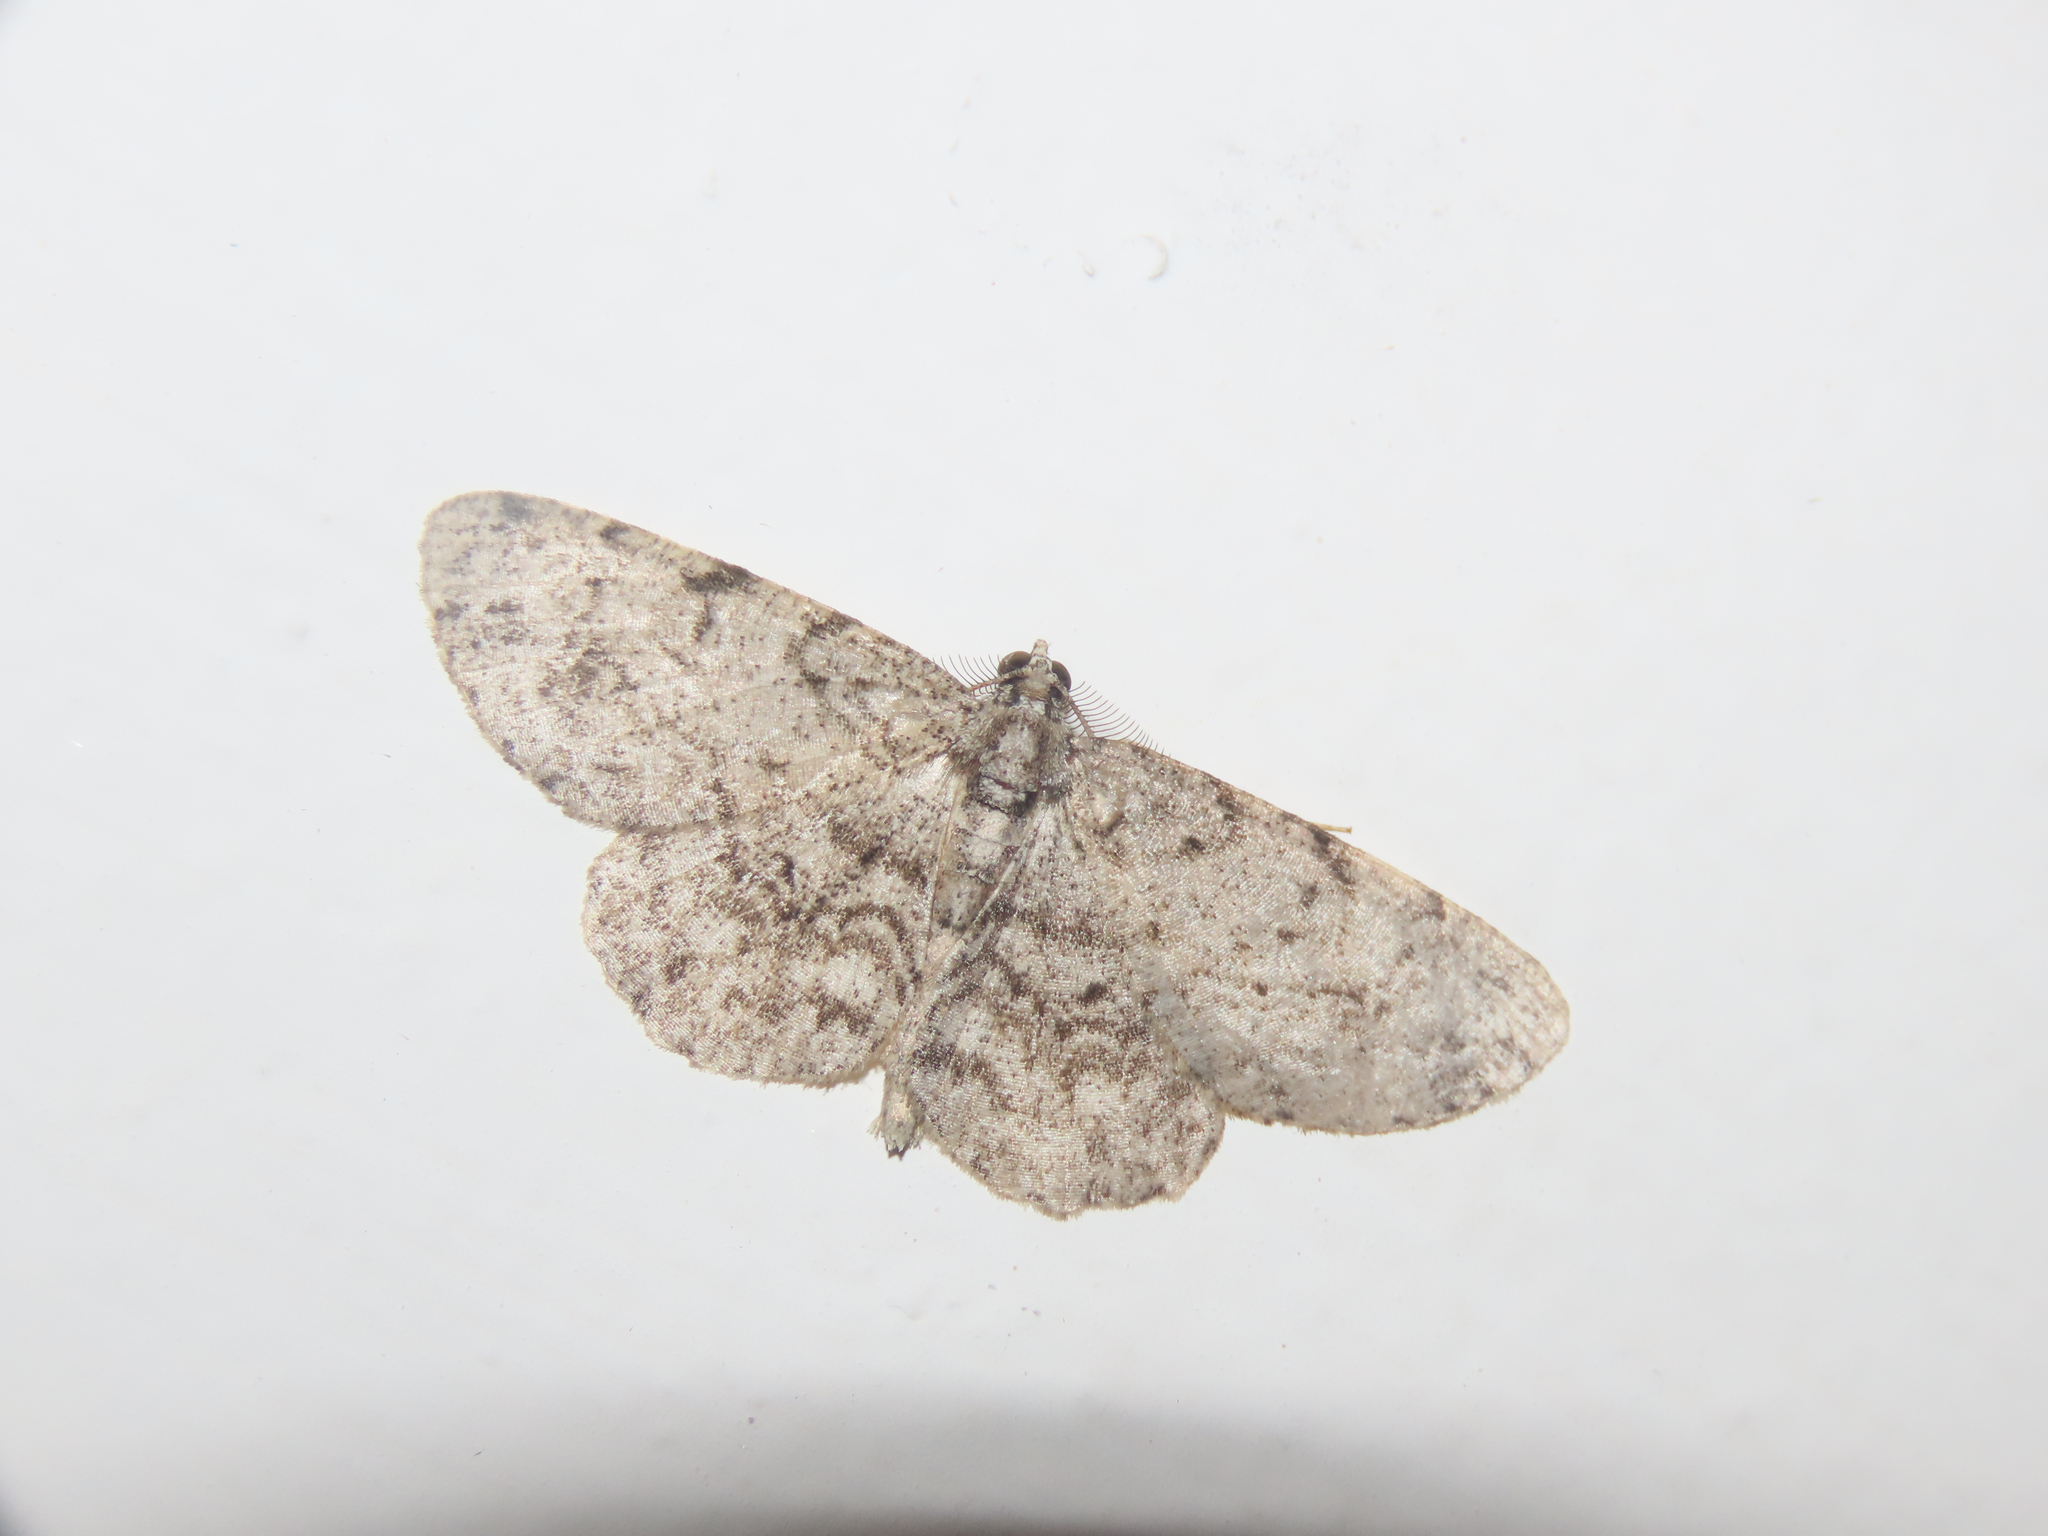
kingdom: Animalia
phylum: Arthropoda
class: Insecta
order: Lepidoptera
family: Geometridae
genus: Protoboarmia
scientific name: Protoboarmia porcelaria
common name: Porcelain gray
